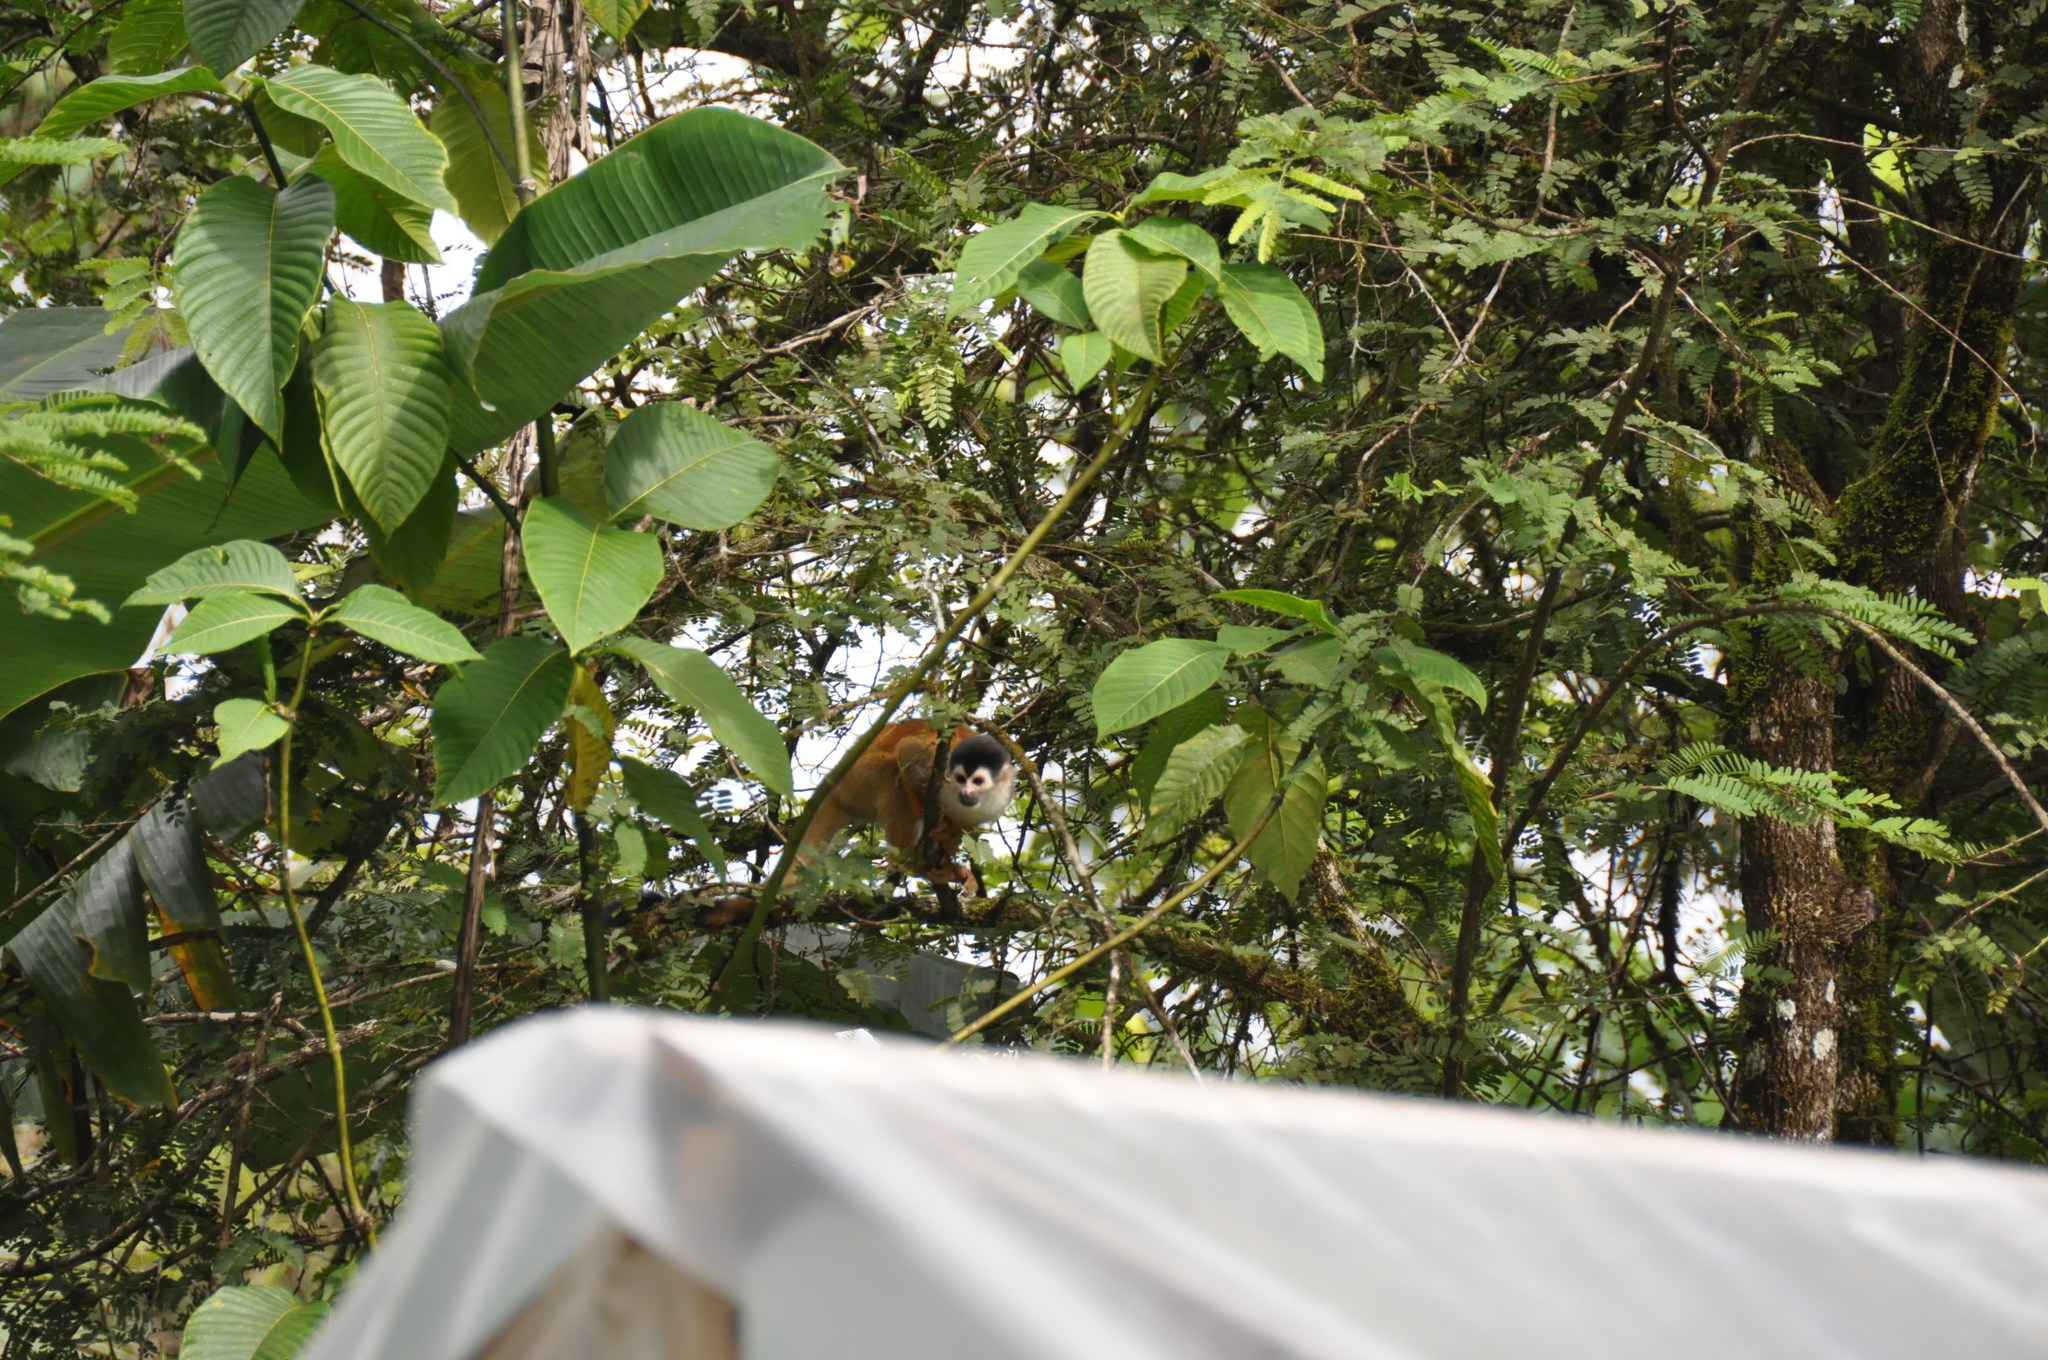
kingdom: Animalia
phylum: Chordata
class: Mammalia
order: Primates
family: Cebidae
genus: Saimiri
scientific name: Saimiri oerstedii
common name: Central american squirrel monkey
